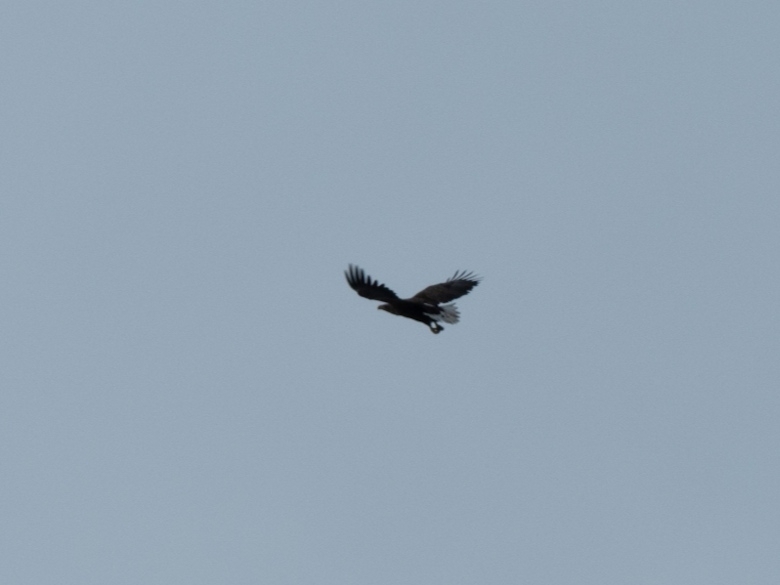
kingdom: Animalia
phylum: Chordata
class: Aves
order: Accipitriformes
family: Accipitridae
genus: Haliaeetus
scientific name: Haliaeetus albicilla
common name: White-tailed eagle
